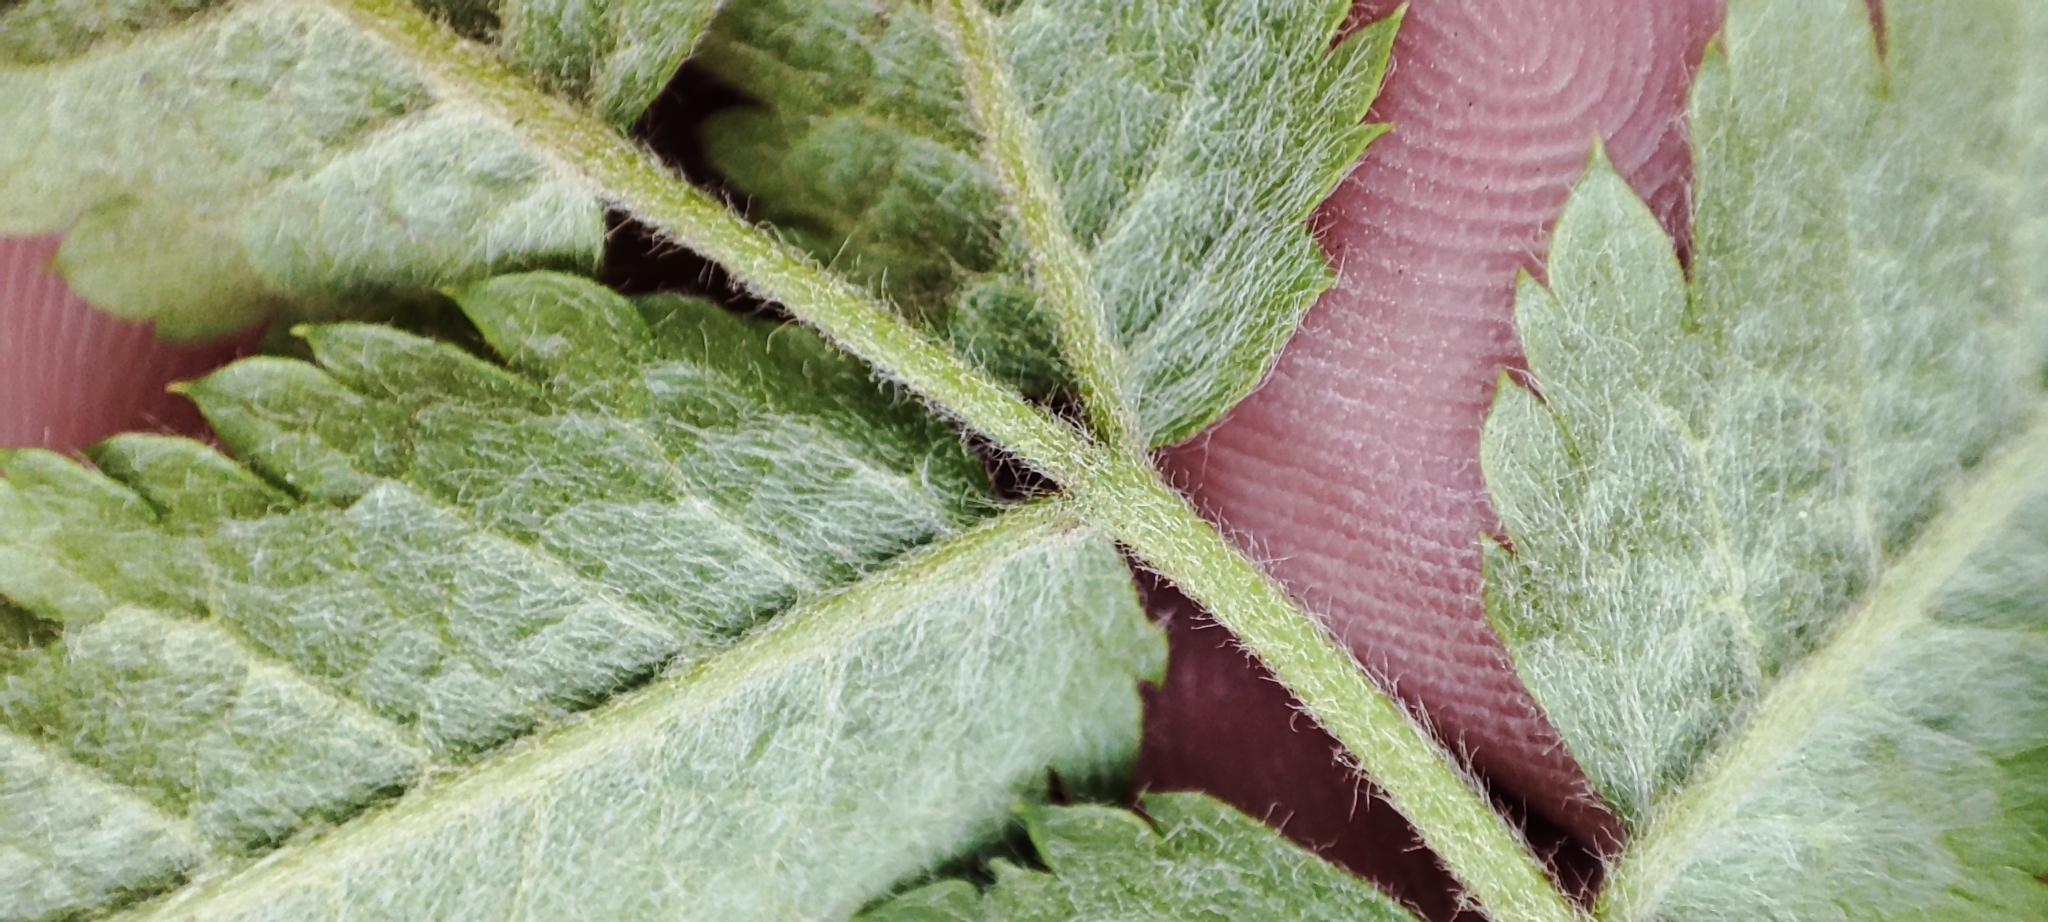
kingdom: Plantae
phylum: Tracheophyta
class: Magnoliopsida
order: Rosales
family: Rosaceae
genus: Sorbus
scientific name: Sorbus aucuparia
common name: Rowan
